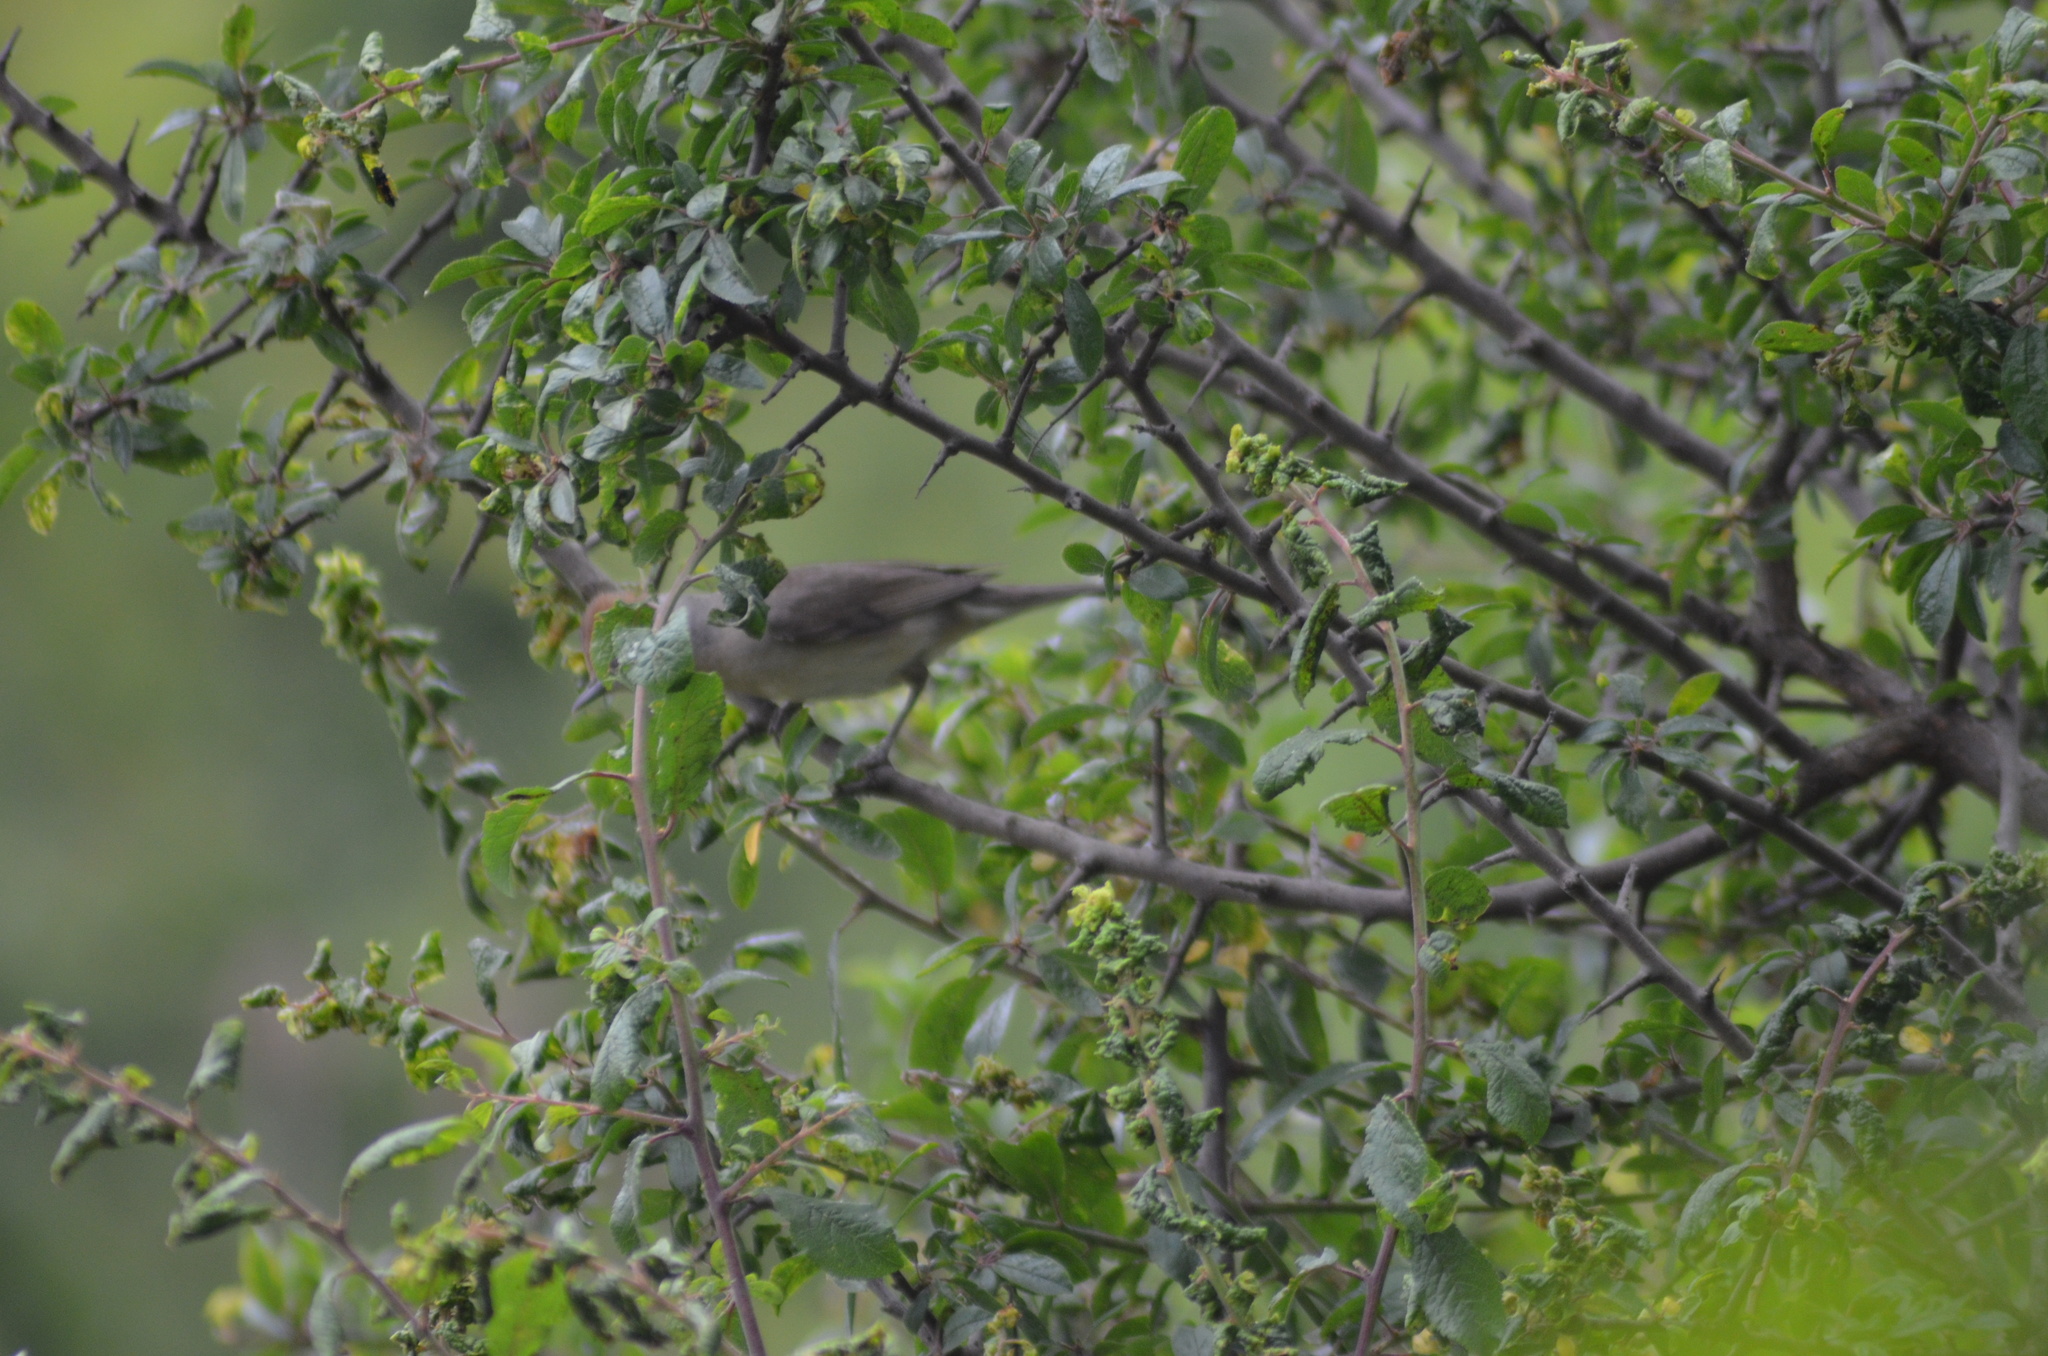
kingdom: Animalia
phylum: Chordata
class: Aves
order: Passeriformes
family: Sylviidae
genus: Sylvia
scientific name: Sylvia atricapilla
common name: Eurasian blackcap
